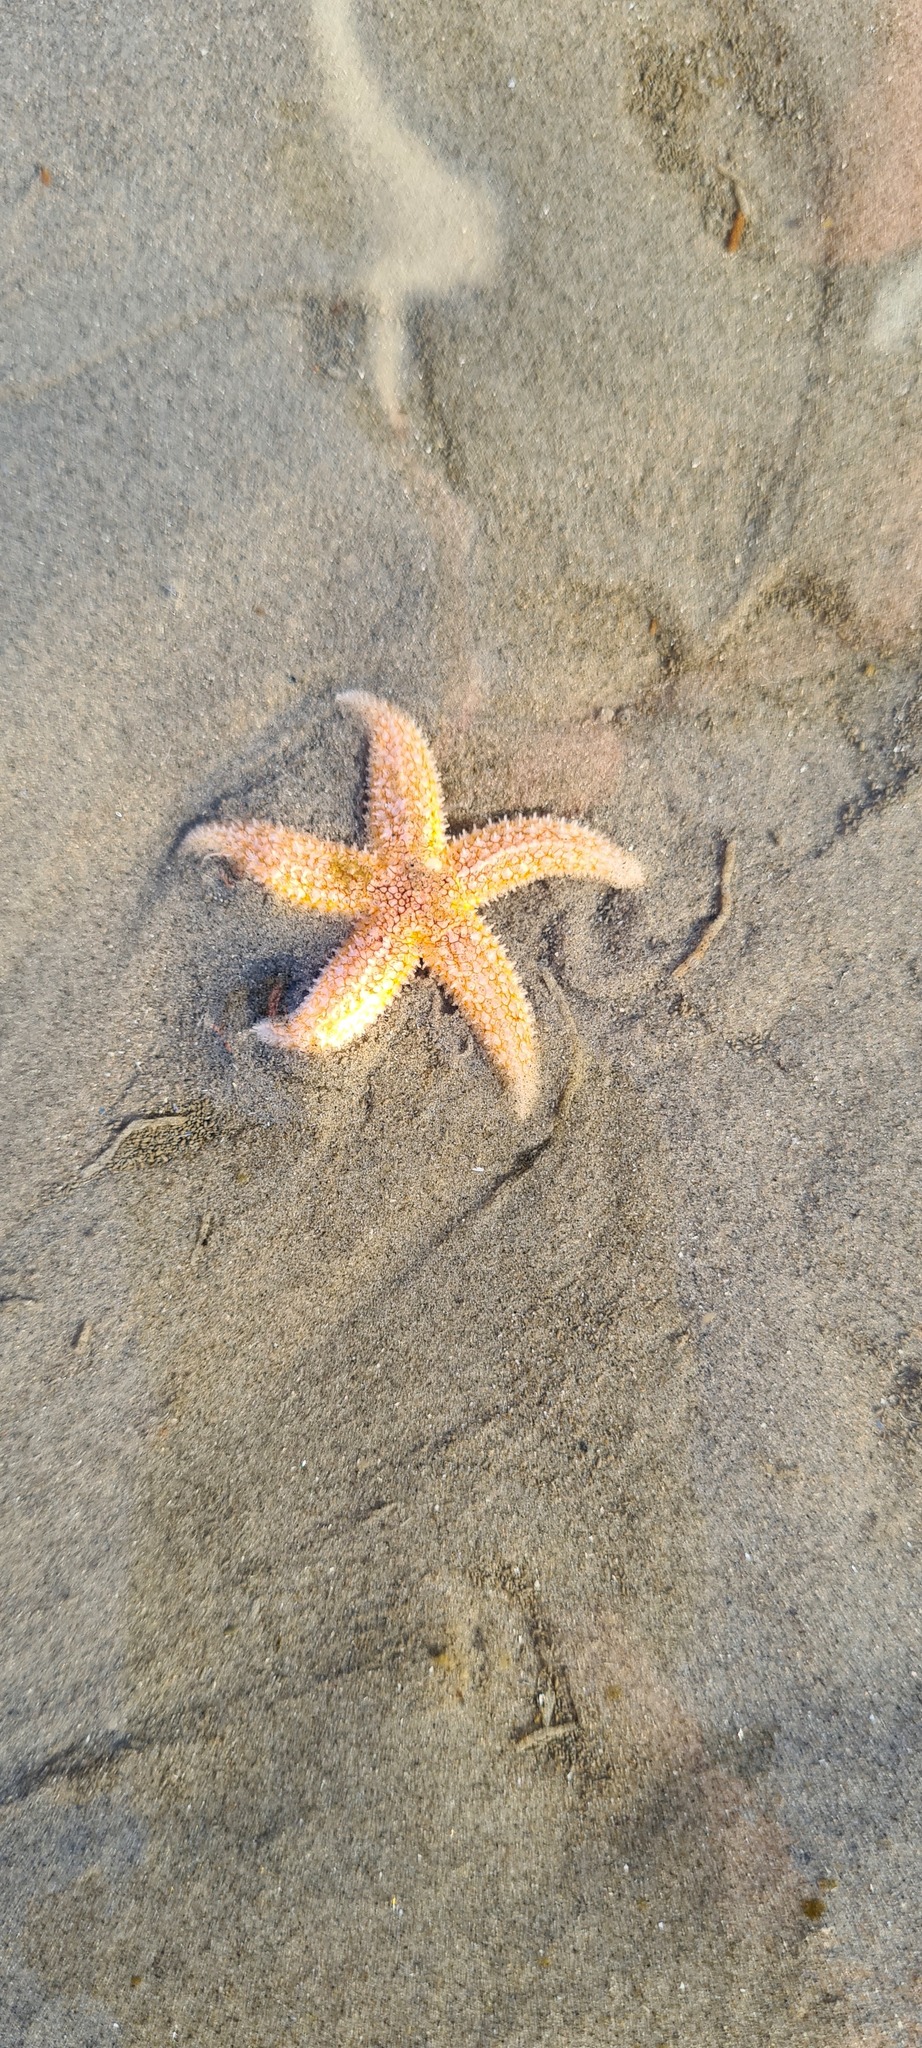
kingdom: Animalia
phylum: Echinodermata
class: Asteroidea
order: Forcipulatida
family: Asteriidae
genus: Asterias
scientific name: Asterias rubens
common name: Common starfish
